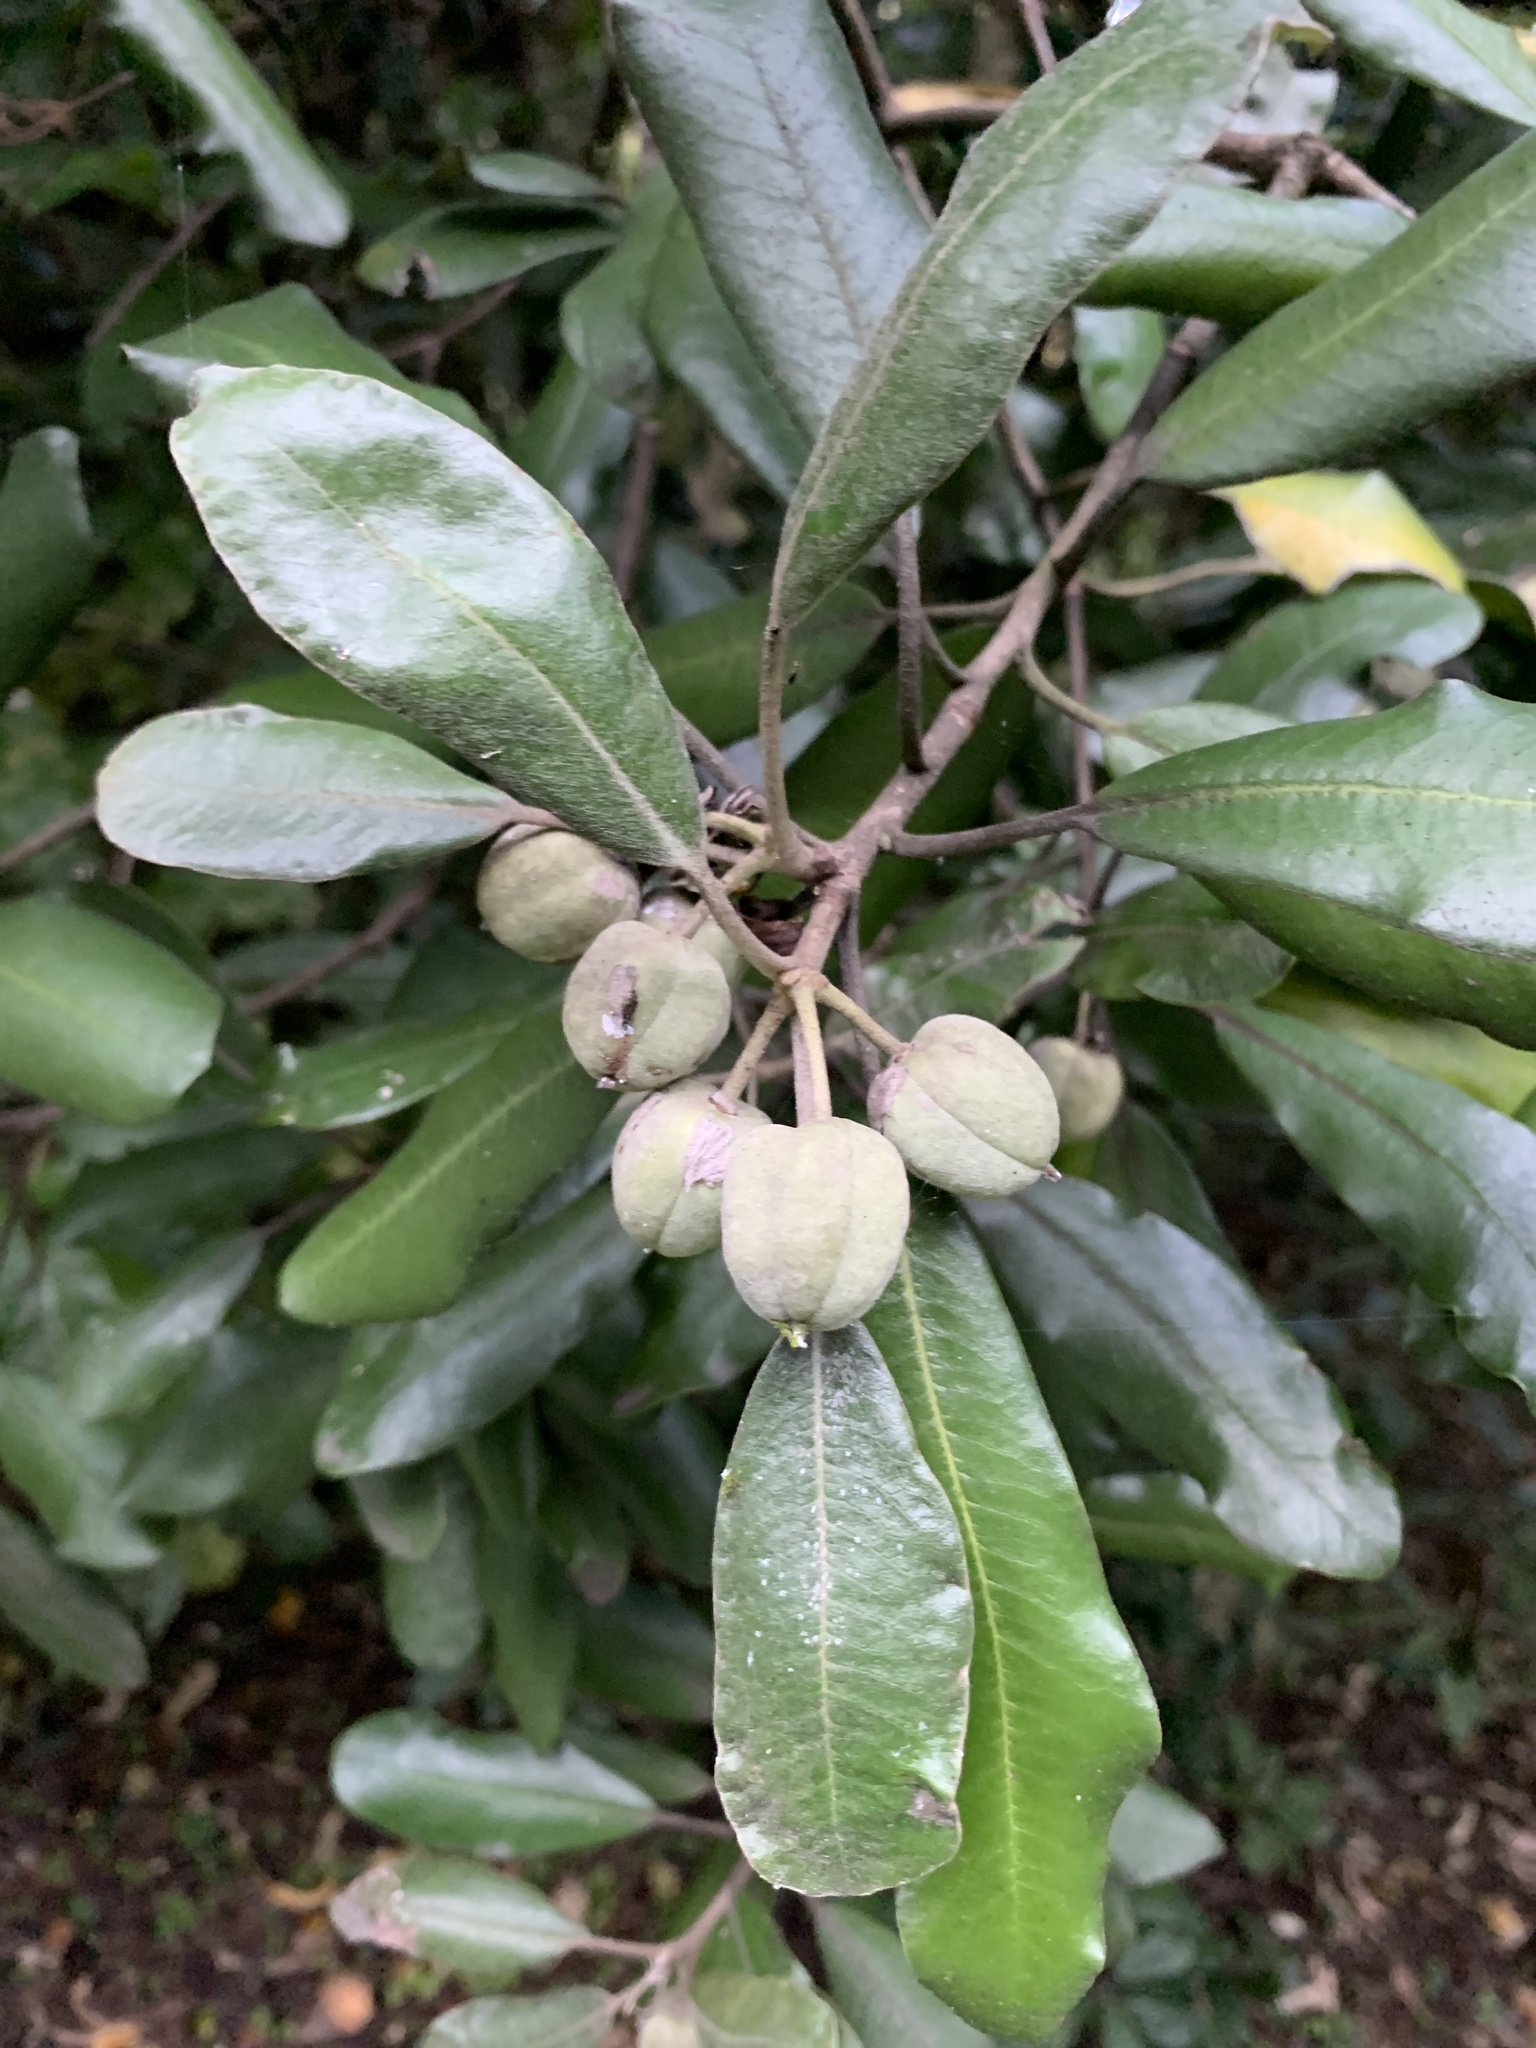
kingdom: Plantae
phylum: Tracheophyta
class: Magnoliopsida
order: Apiales
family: Pittosporaceae
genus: Pittosporum
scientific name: Pittosporum crassifolium
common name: Karo
